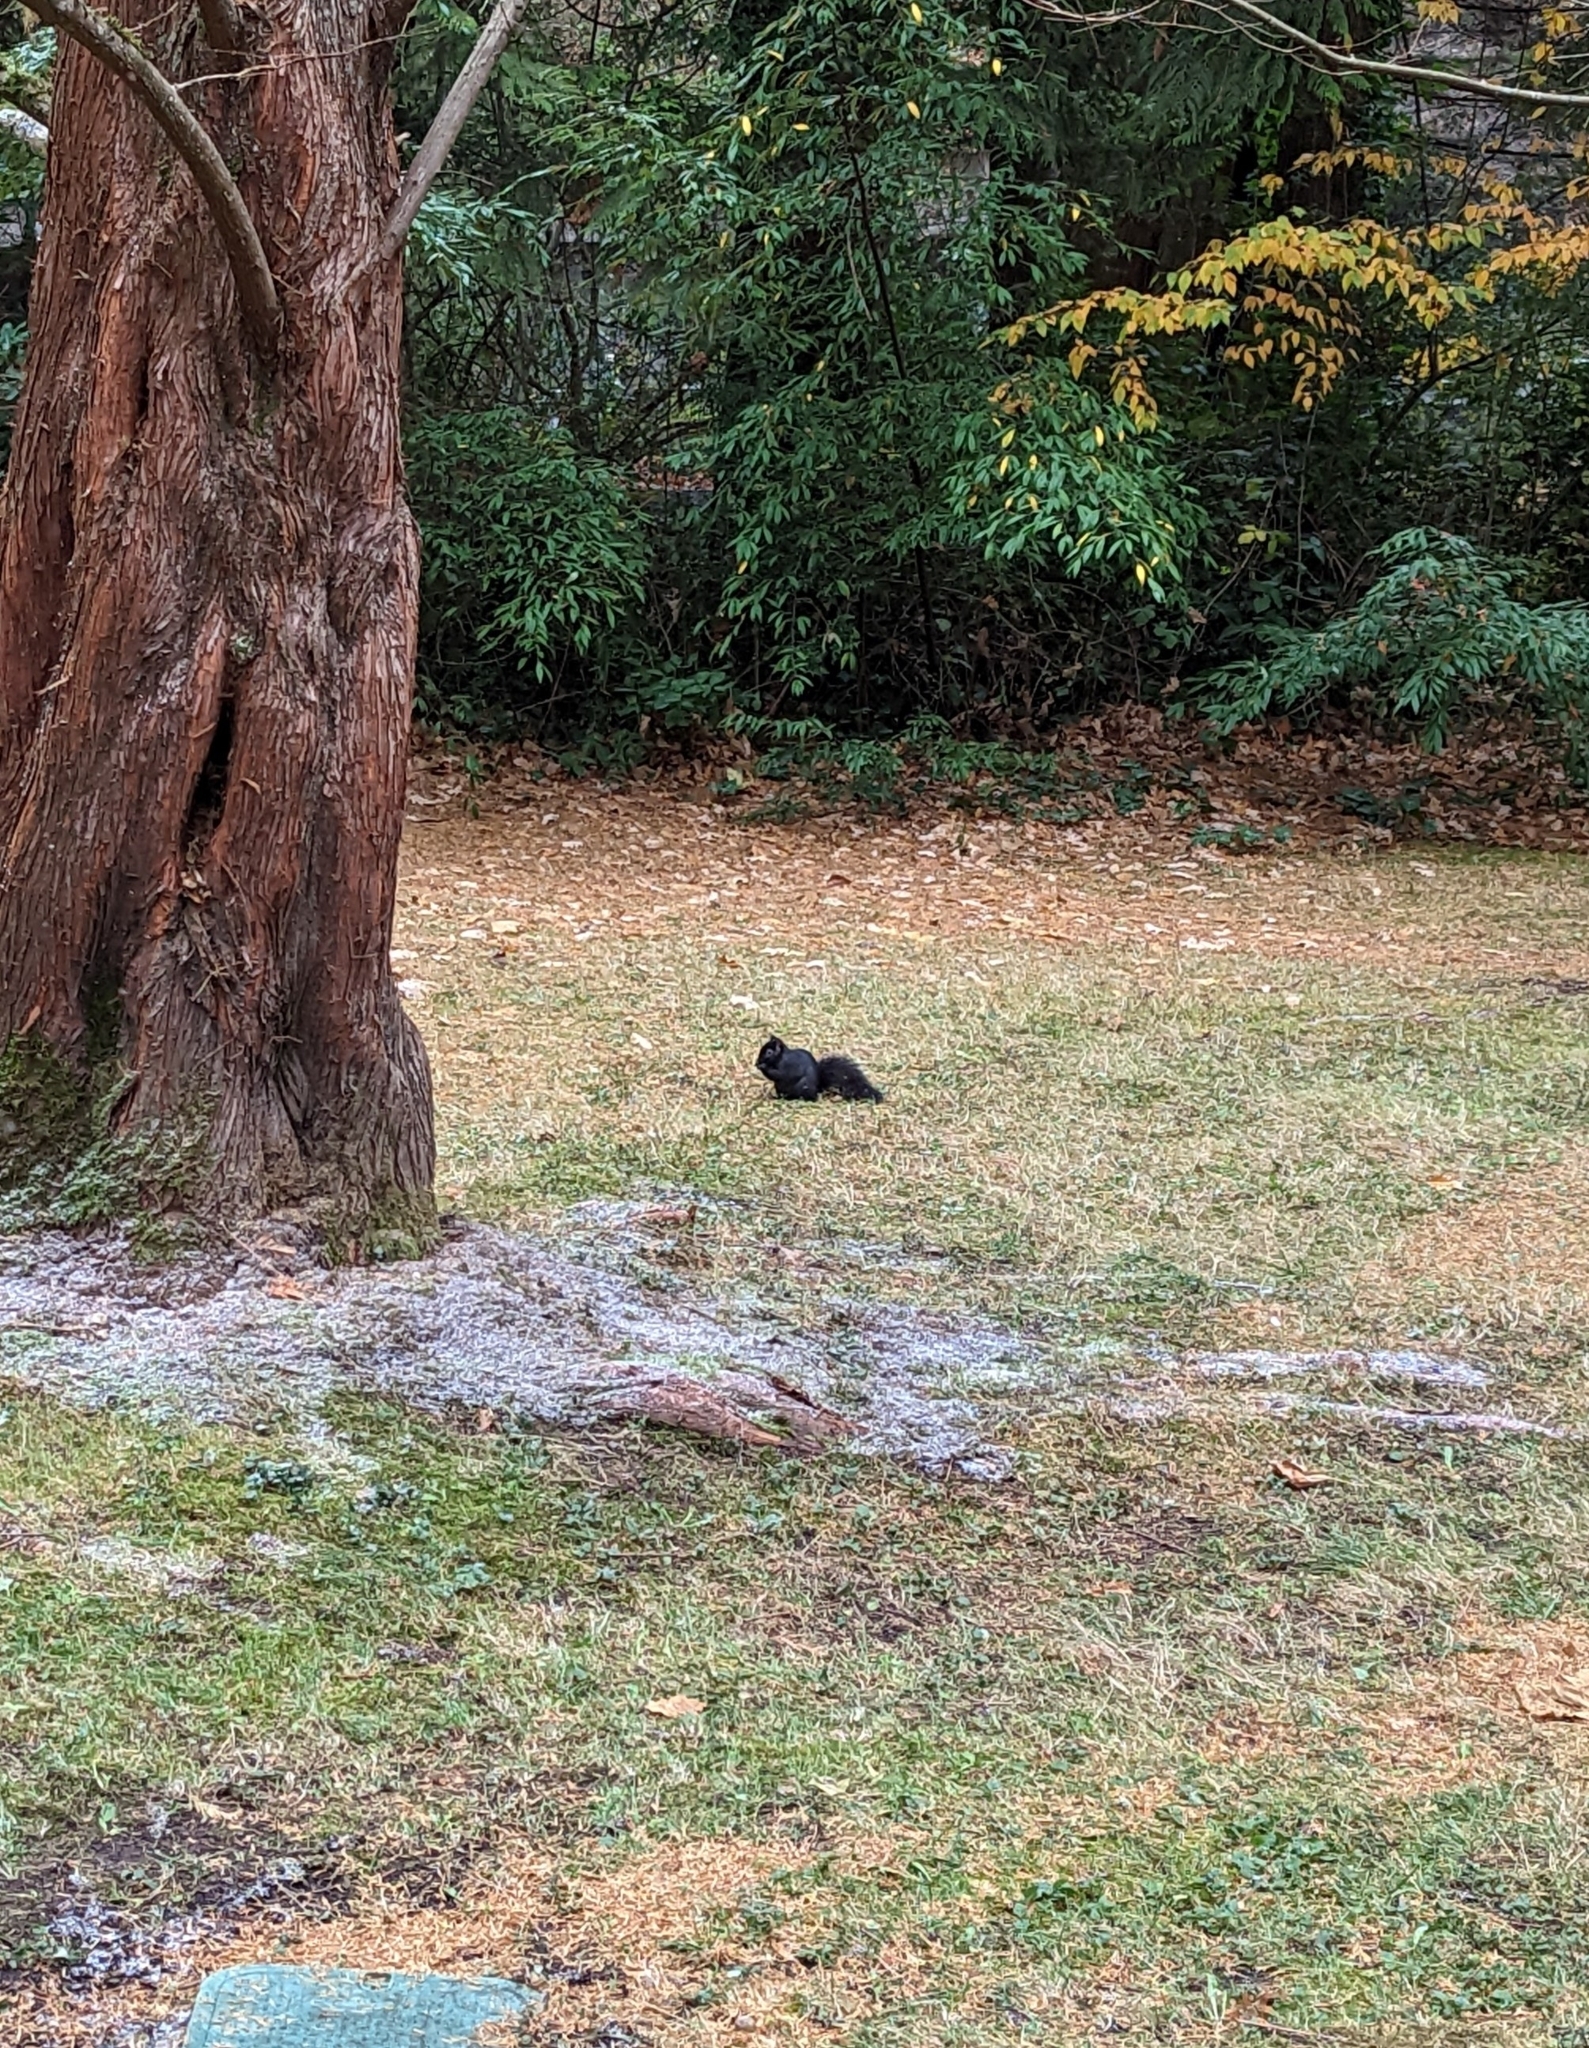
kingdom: Animalia
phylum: Chordata
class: Mammalia
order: Rodentia
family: Sciuridae
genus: Sciurus
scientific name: Sciurus carolinensis
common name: Eastern gray squirrel
